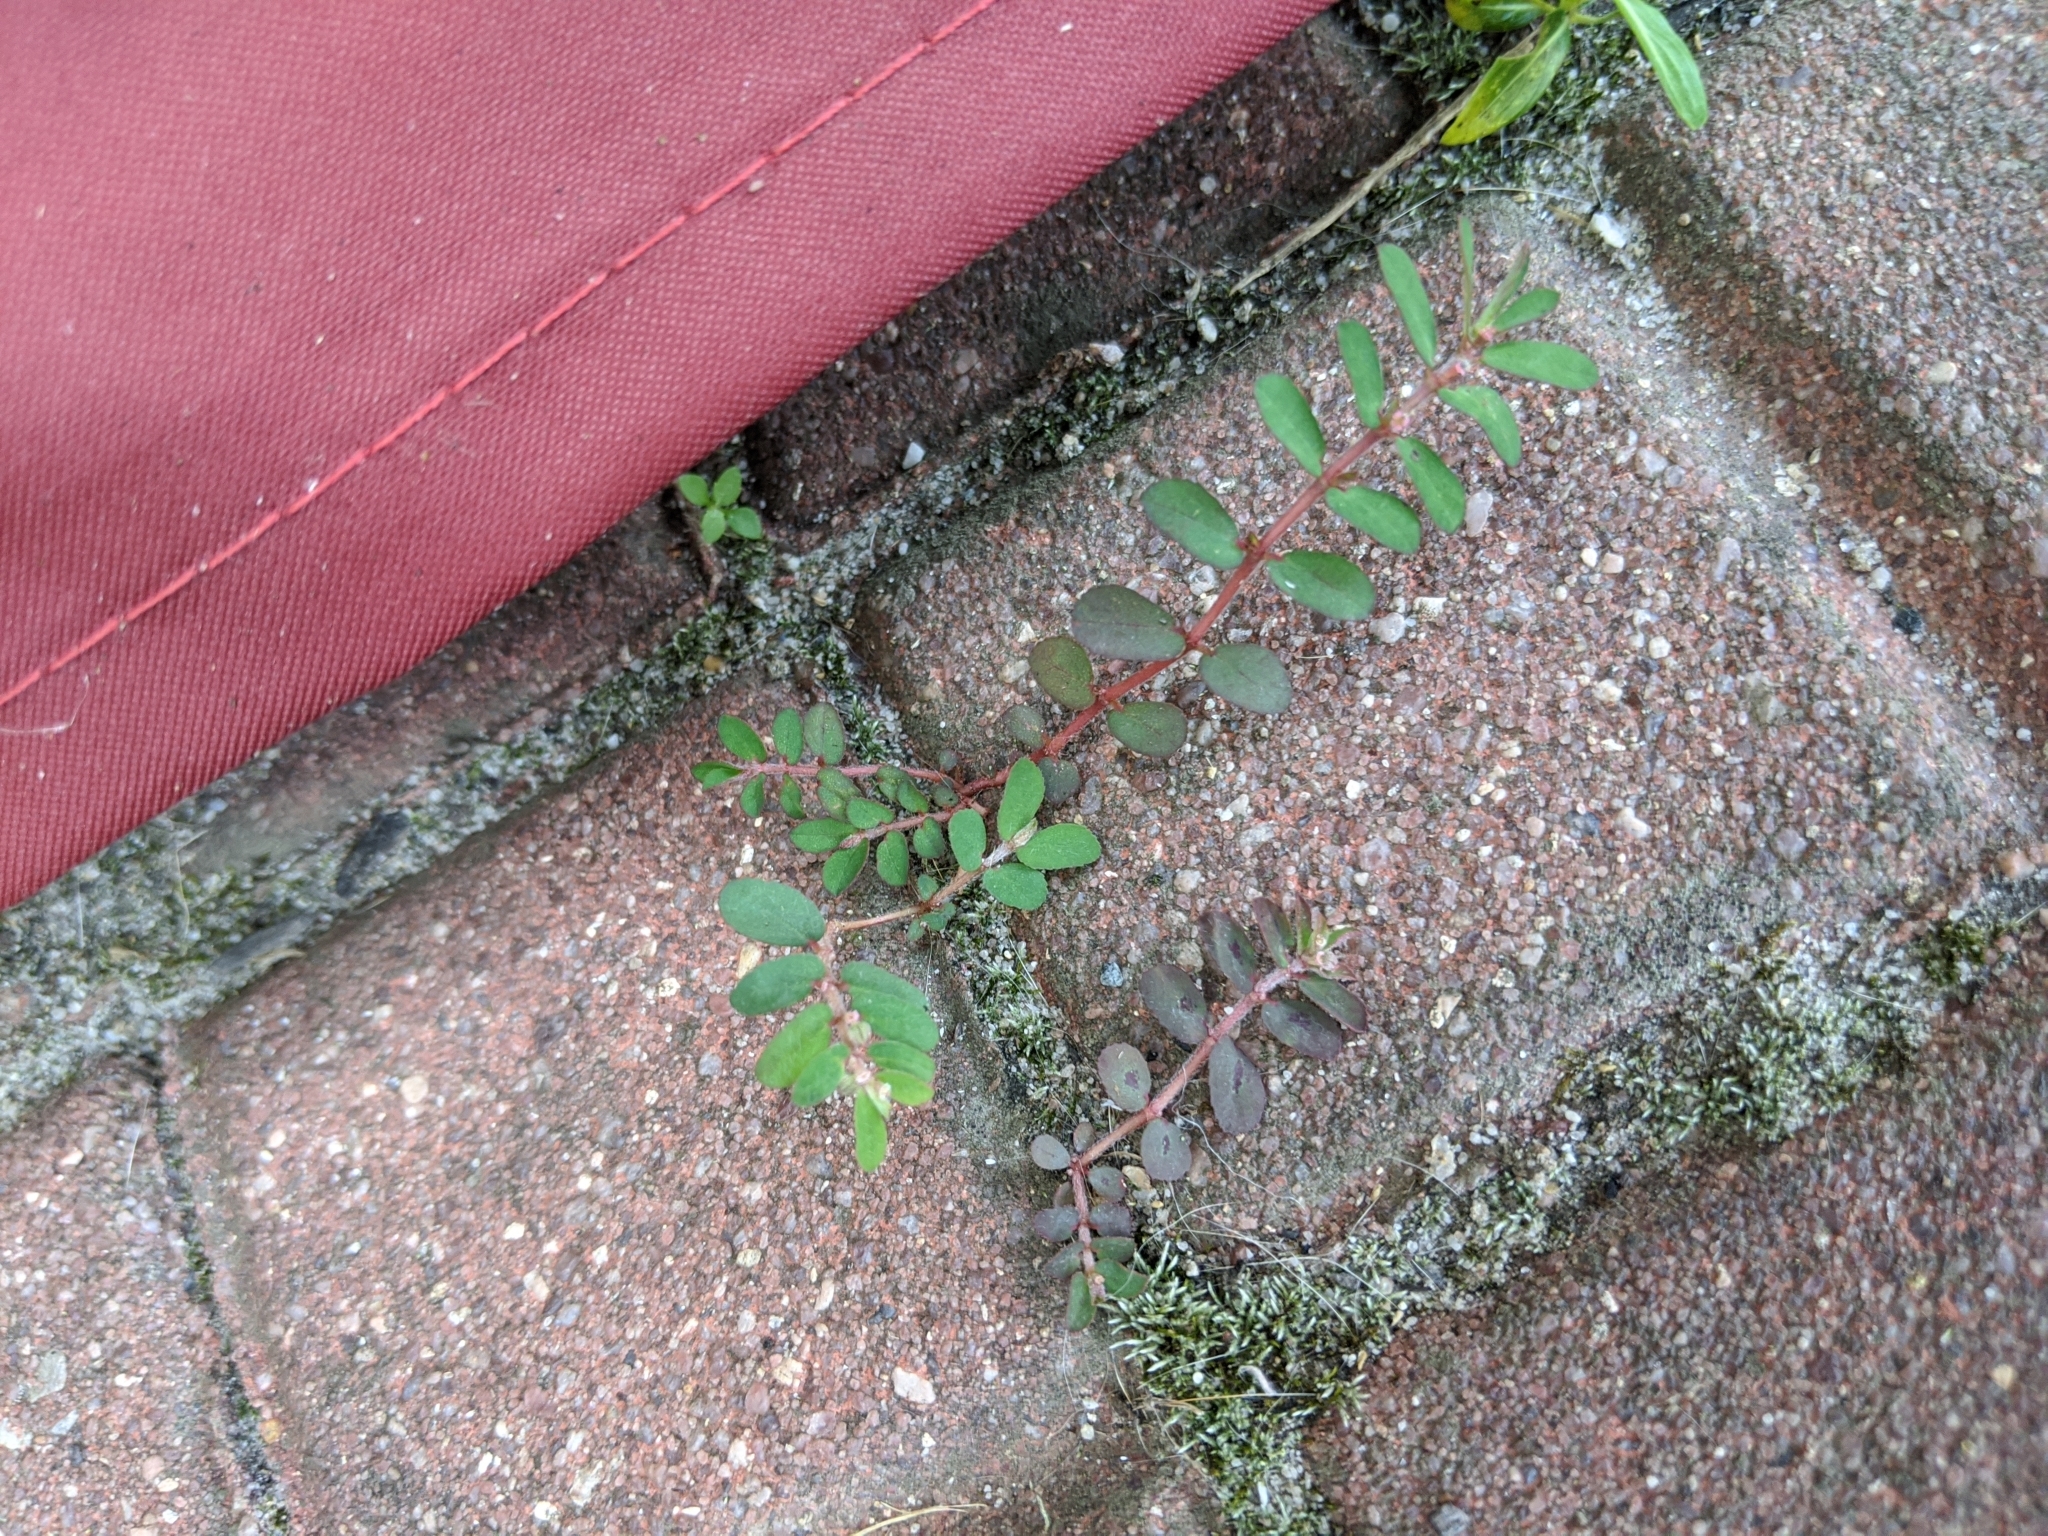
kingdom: Plantae
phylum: Tracheophyta
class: Magnoliopsida
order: Malpighiales
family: Euphorbiaceae
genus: Euphorbia
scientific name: Euphorbia maculata
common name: Spotted spurge
